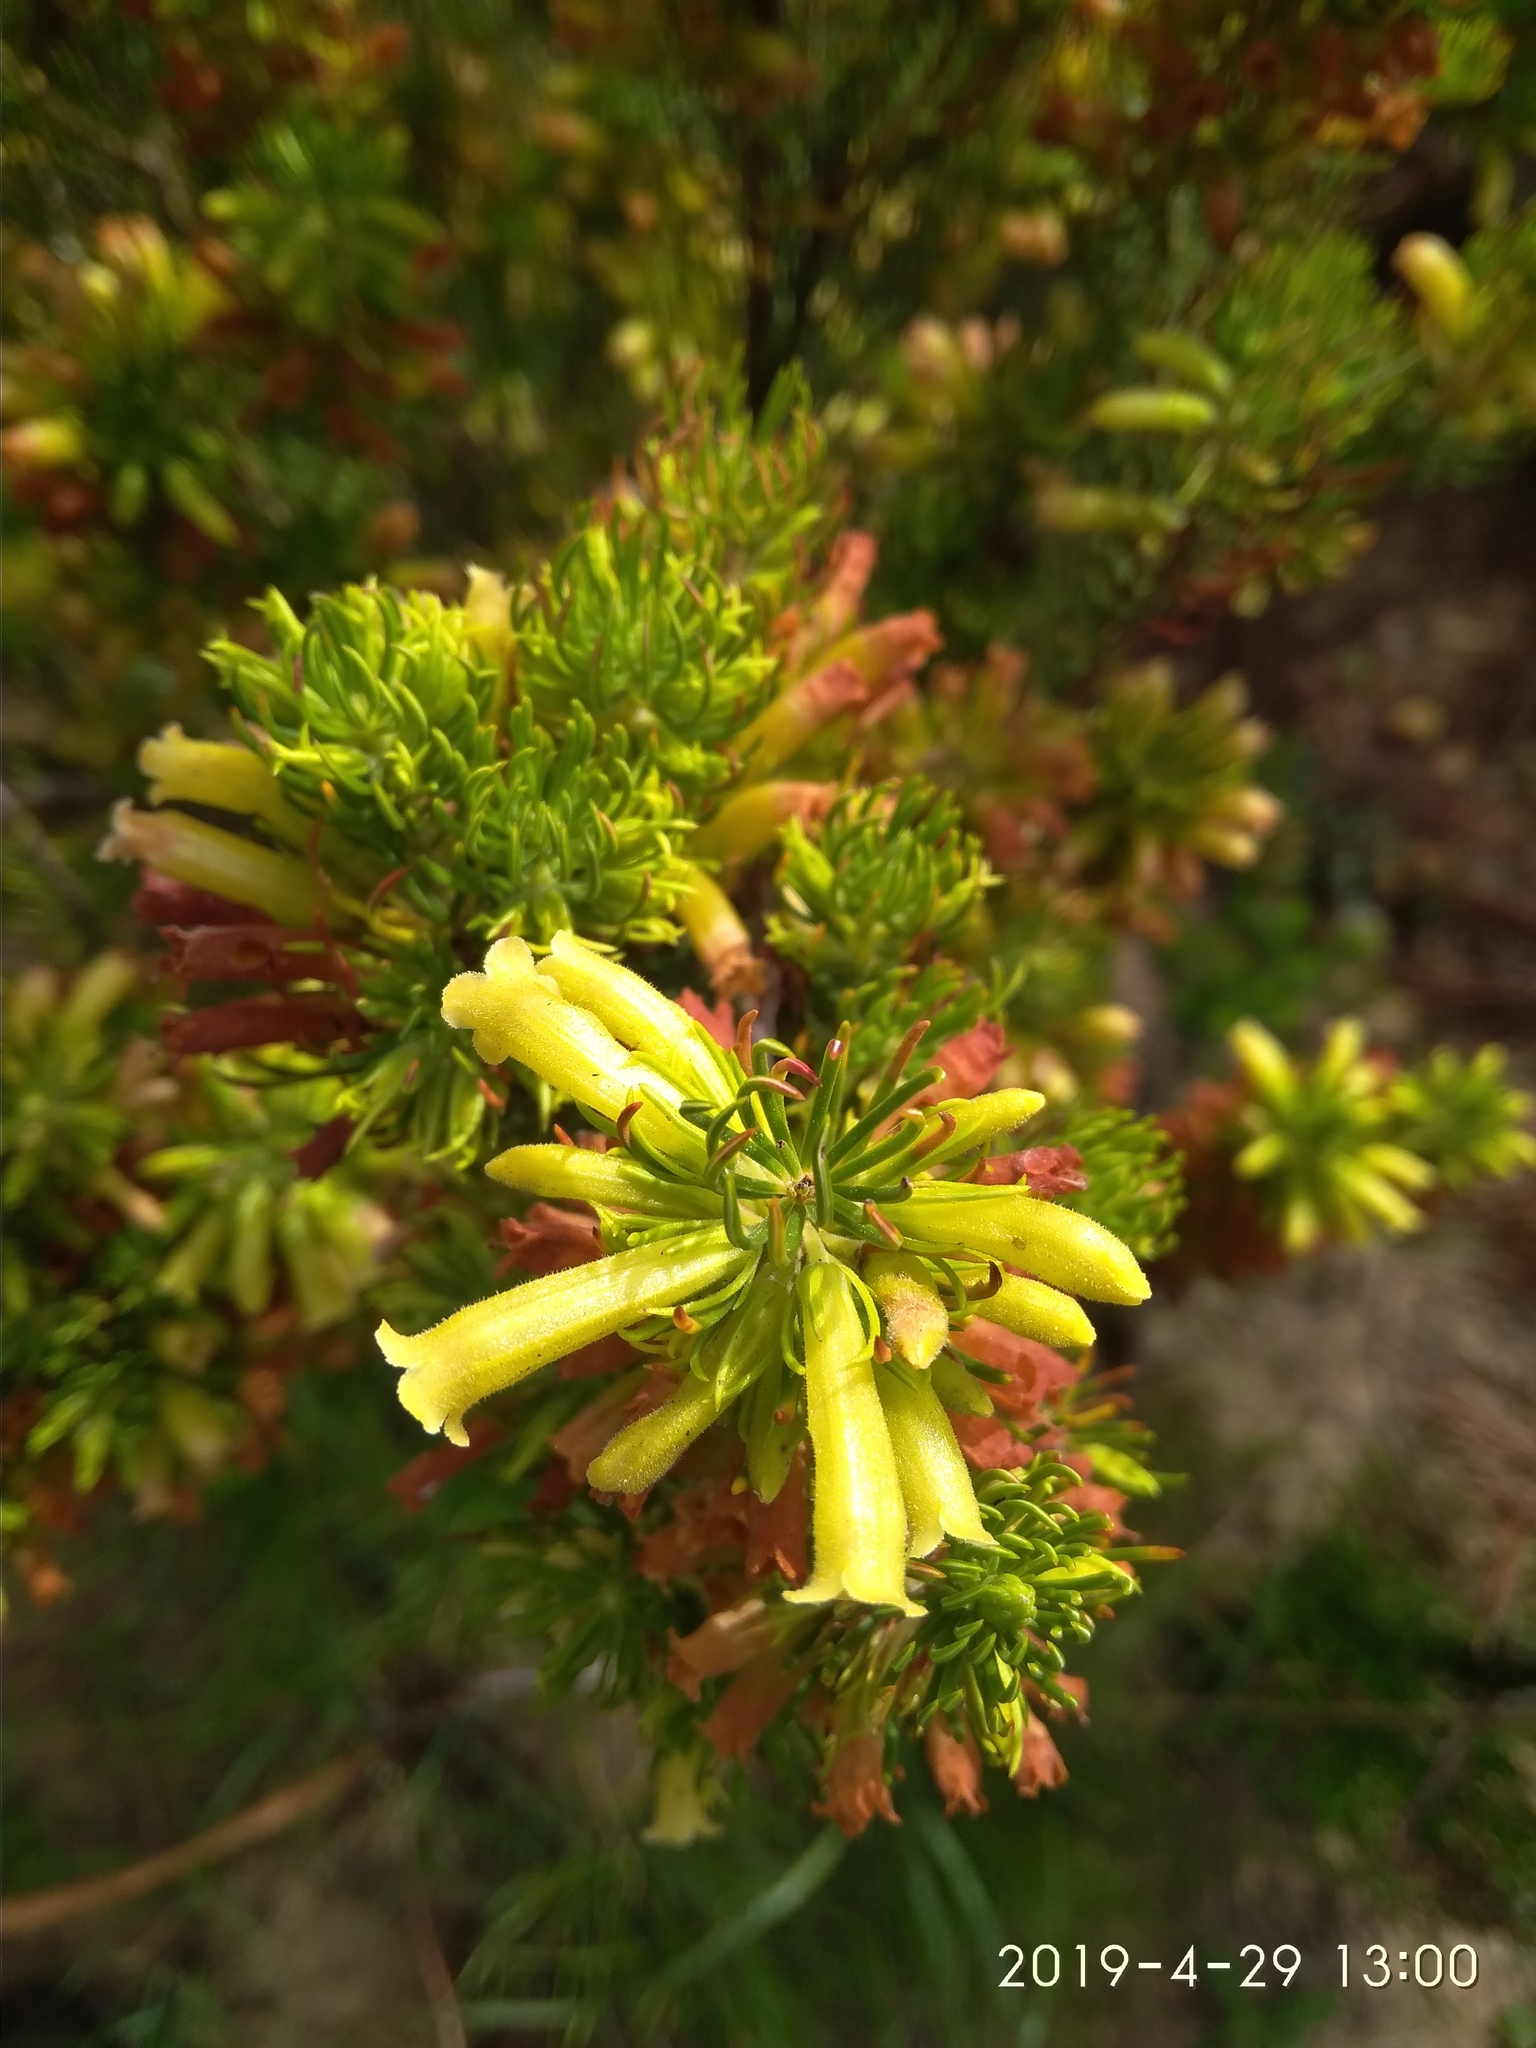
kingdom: Plantae
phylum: Tracheophyta
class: Magnoliopsida
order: Ericales
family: Ericaceae
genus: Erica
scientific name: Erica viscaria
